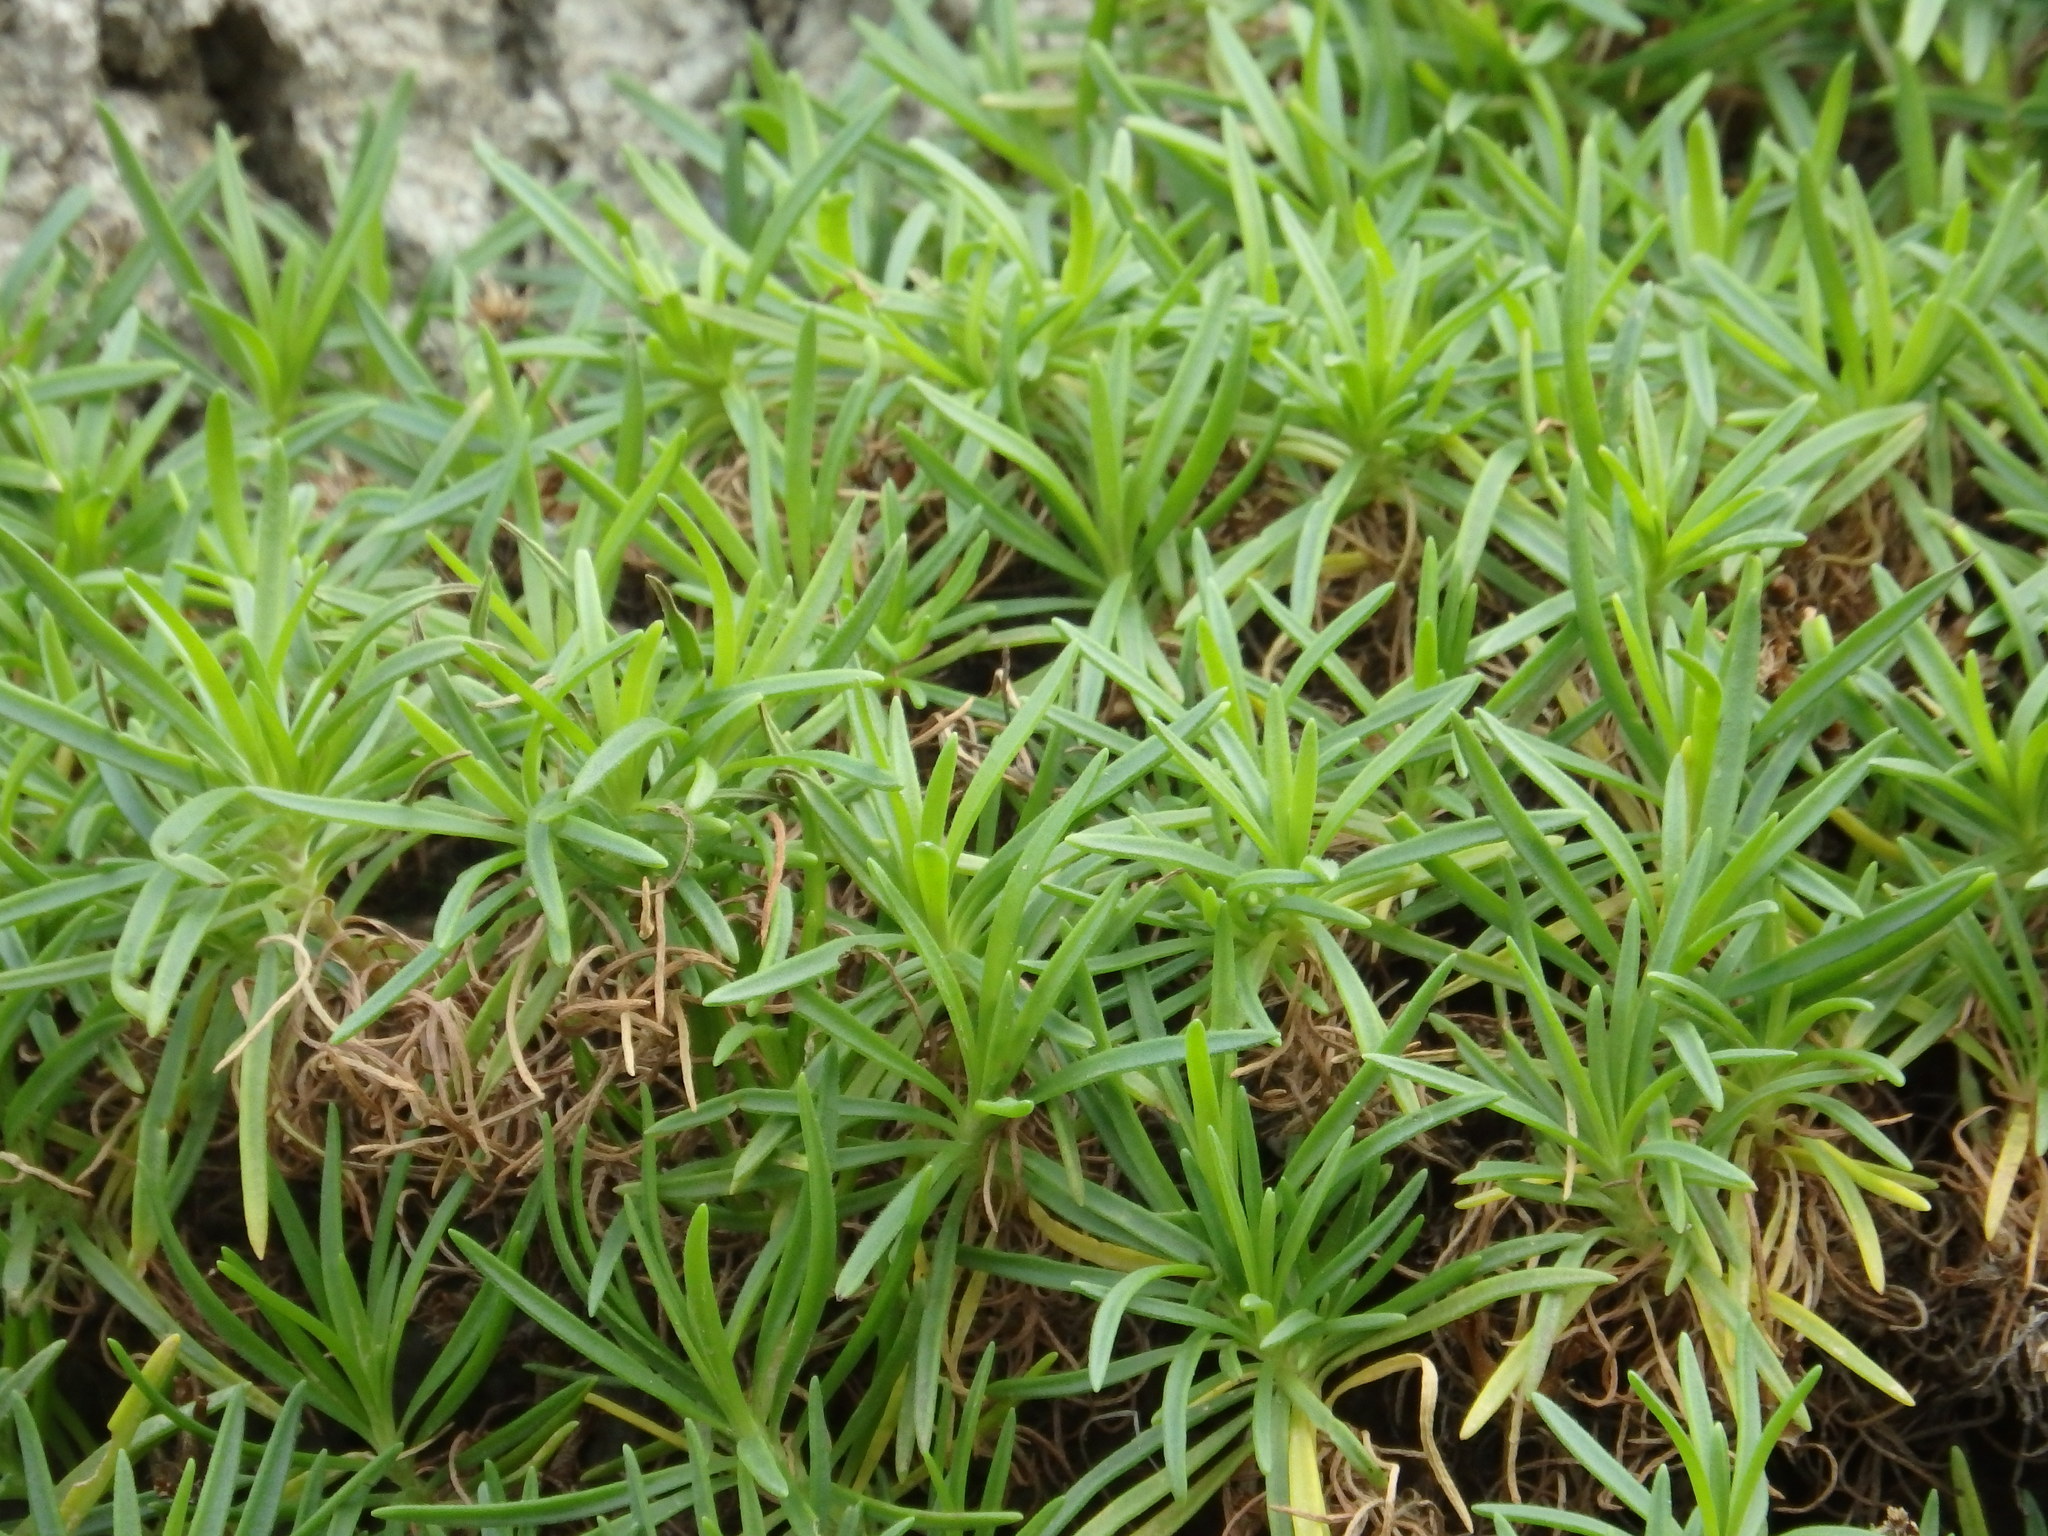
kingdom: Plantae
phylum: Tracheophyta
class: Magnoliopsida
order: Lamiales
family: Plantaginaceae
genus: Plantago
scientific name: Plantago arborescens
